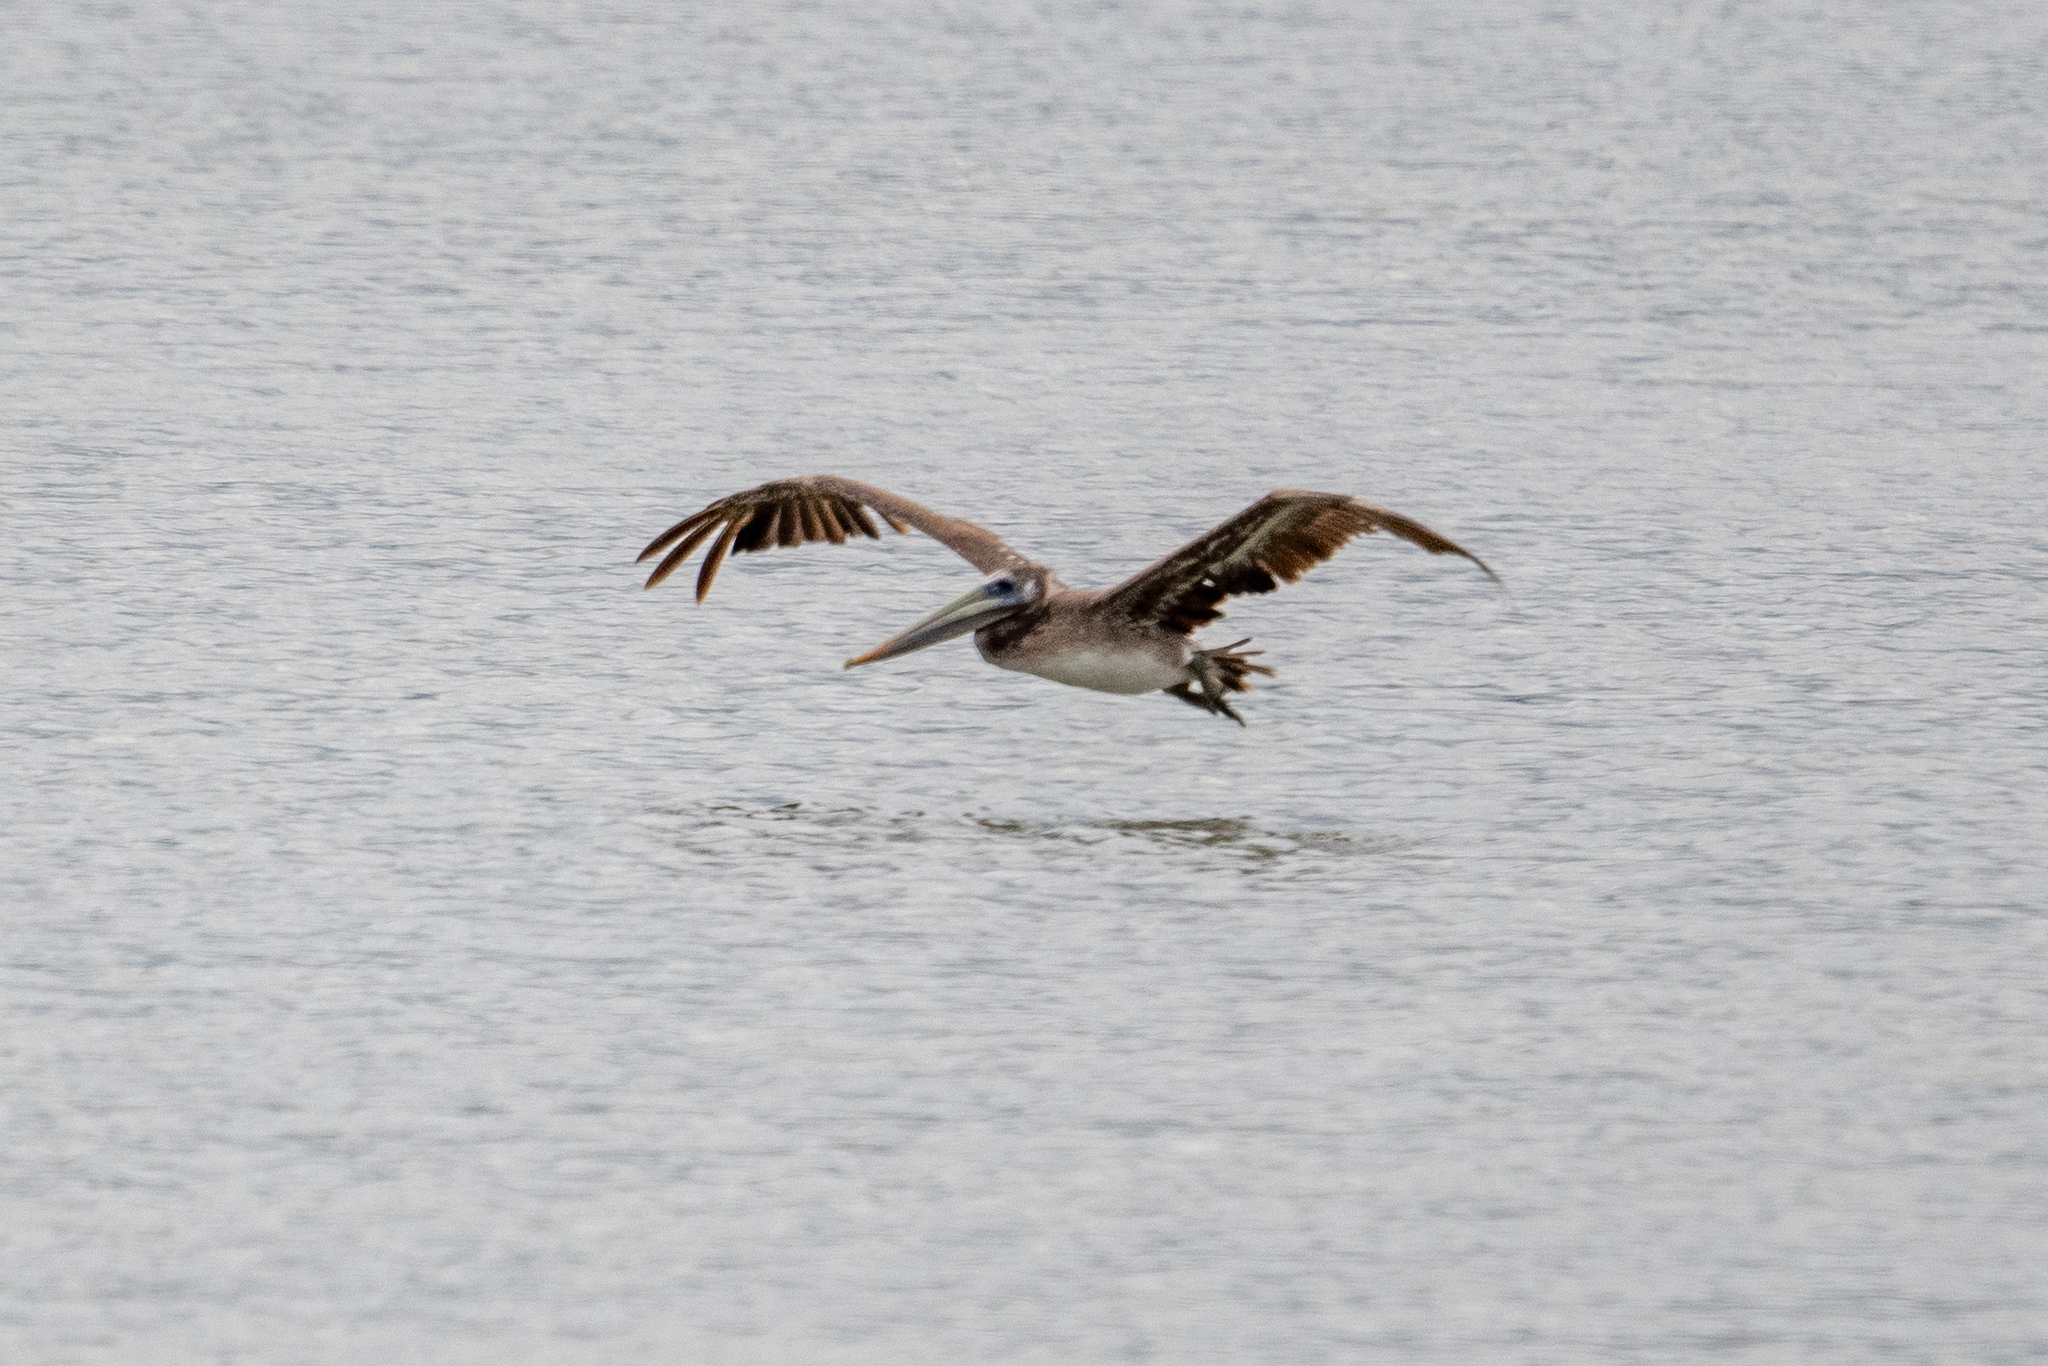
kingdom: Animalia
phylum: Chordata
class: Aves
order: Pelecaniformes
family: Pelecanidae
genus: Pelecanus
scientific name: Pelecanus occidentalis
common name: Brown pelican
